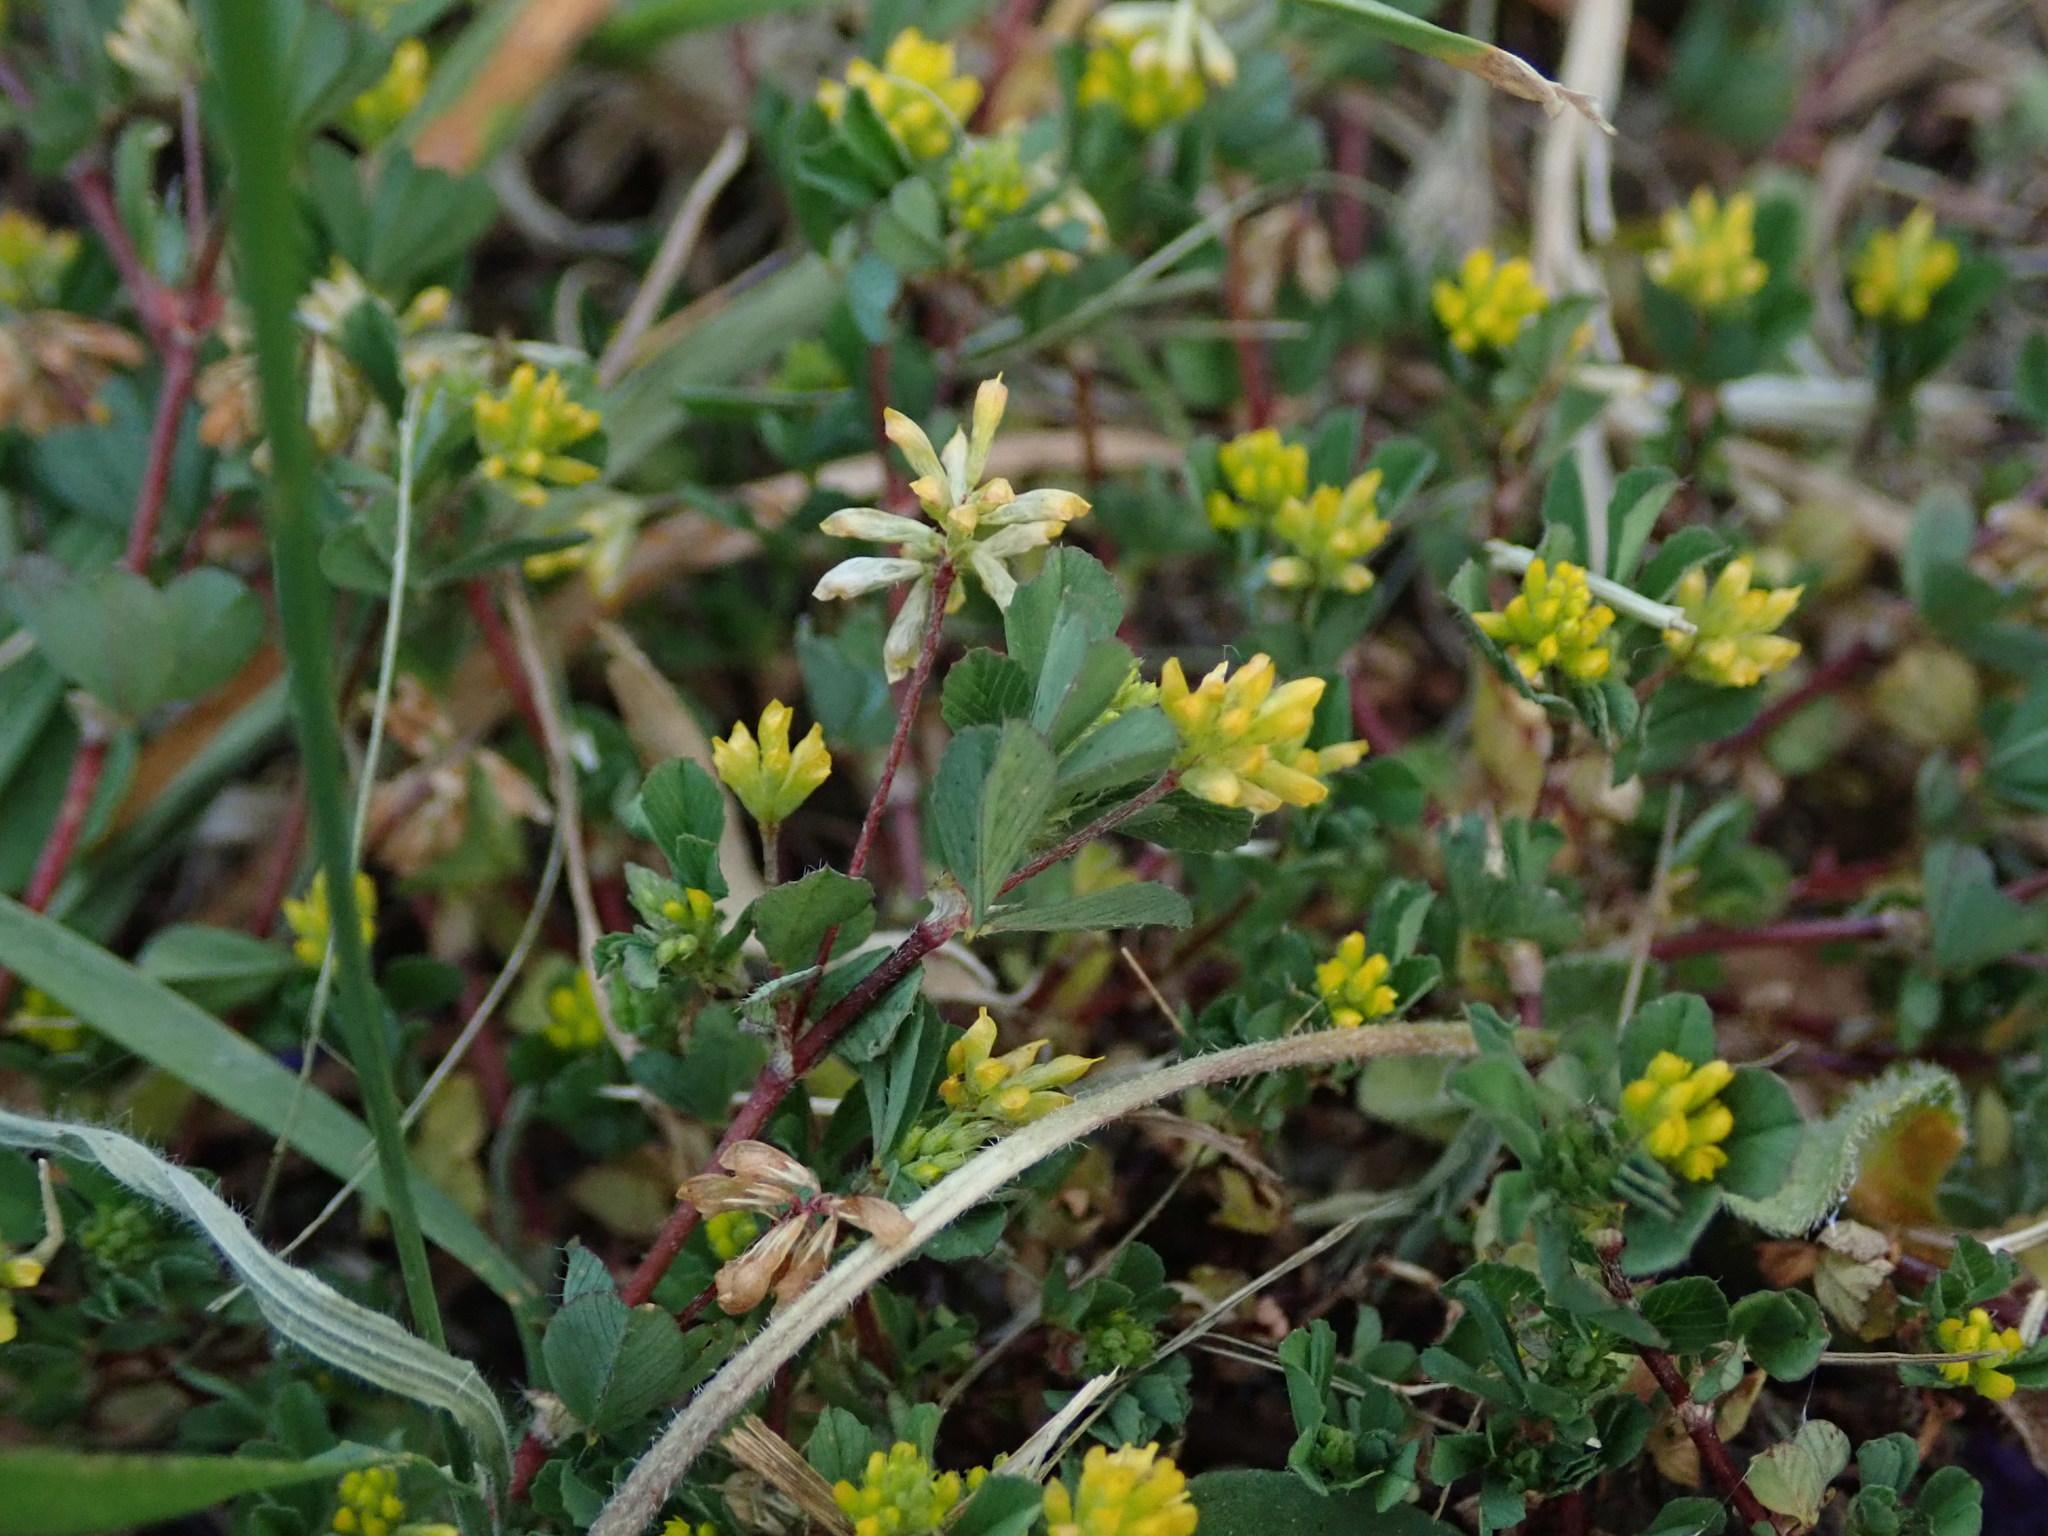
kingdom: Plantae
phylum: Tracheophyta
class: Magnoliopsida
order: Fabales
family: Fabaceae
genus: Trifolium
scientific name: Trifolium dubium
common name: Suckling clover
